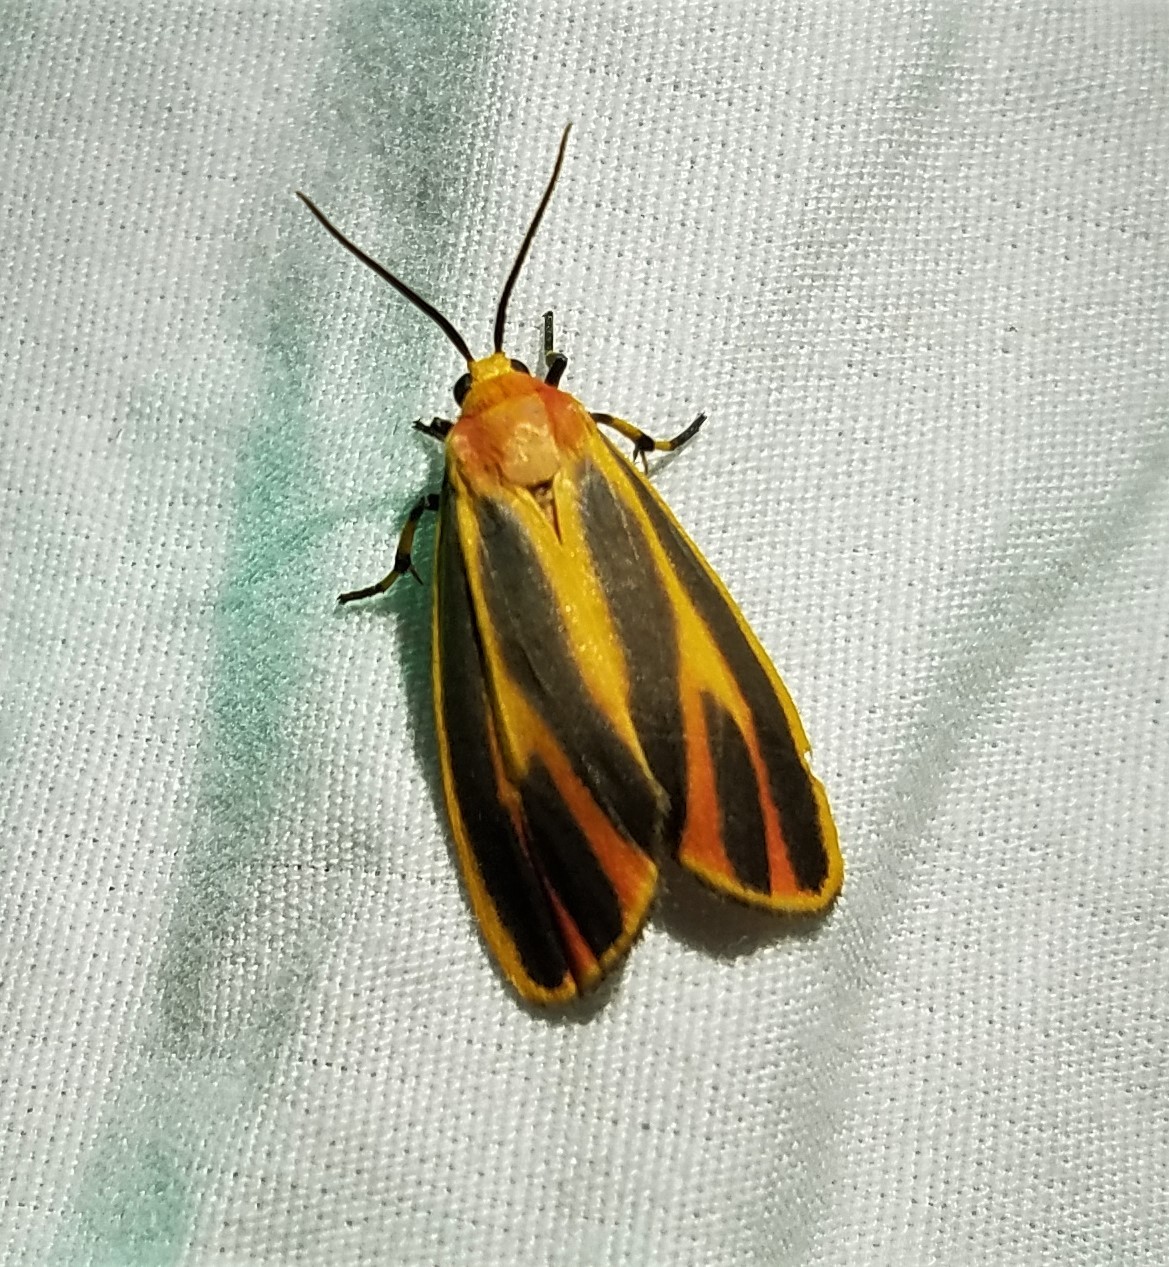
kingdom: Animalia
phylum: Arthropoda
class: Insecta
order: Lepidoptera
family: Erebidae
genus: Hypoprepia
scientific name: Hypoprepia fucosa
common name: Painted lichen moth
